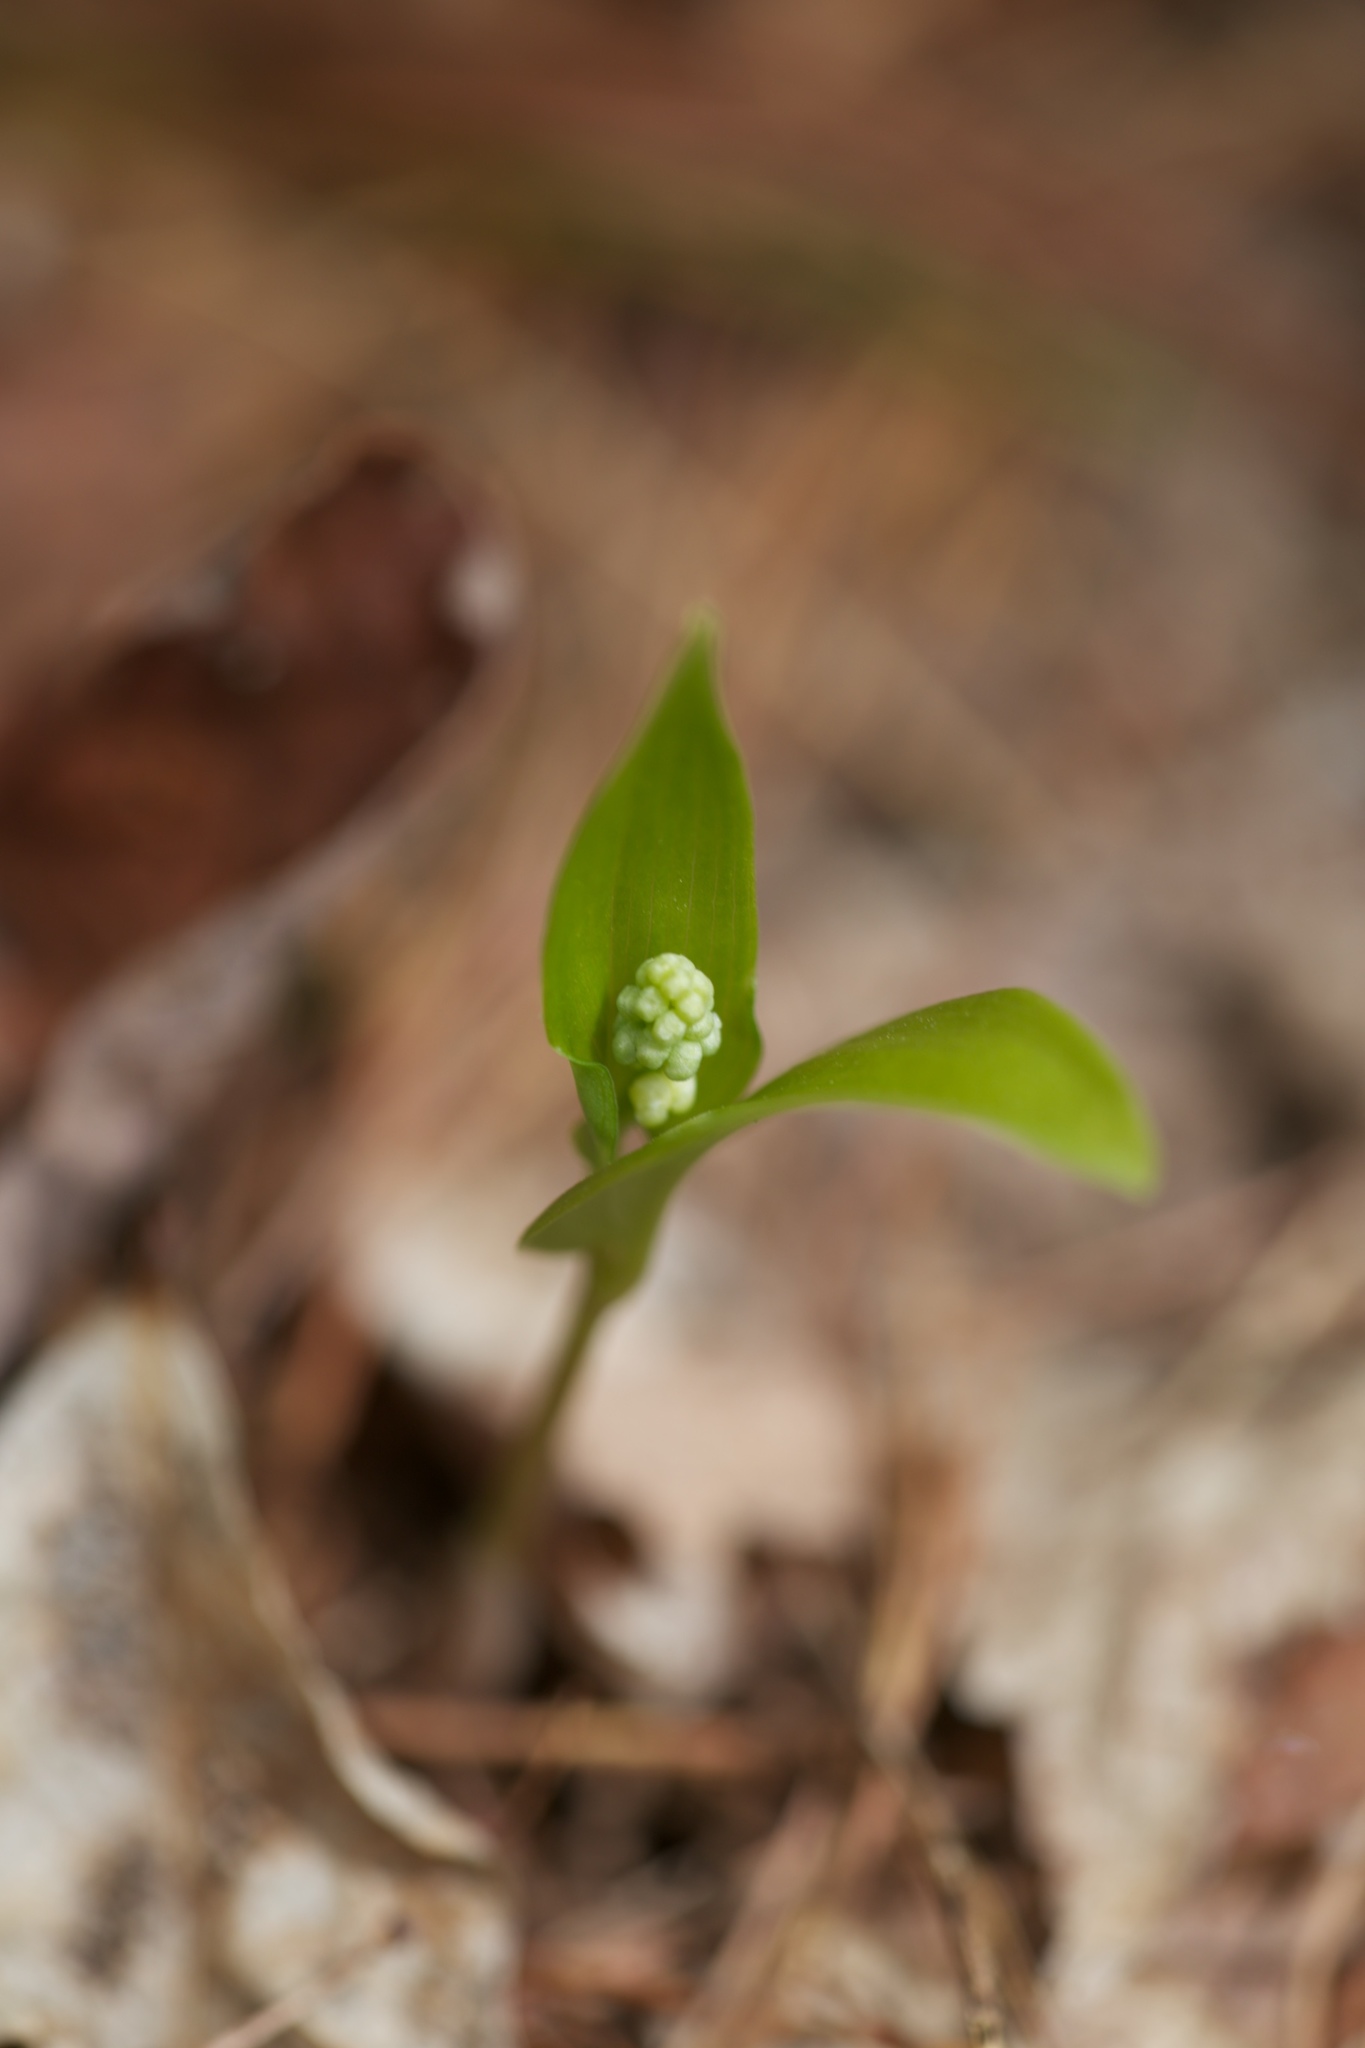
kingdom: Plantae
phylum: Tracheophyta
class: Liliopsida
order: Asparagales
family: Asparagaceae
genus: Maianthemum
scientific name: Maianthemum canadense
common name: False lily-of-the-valley
